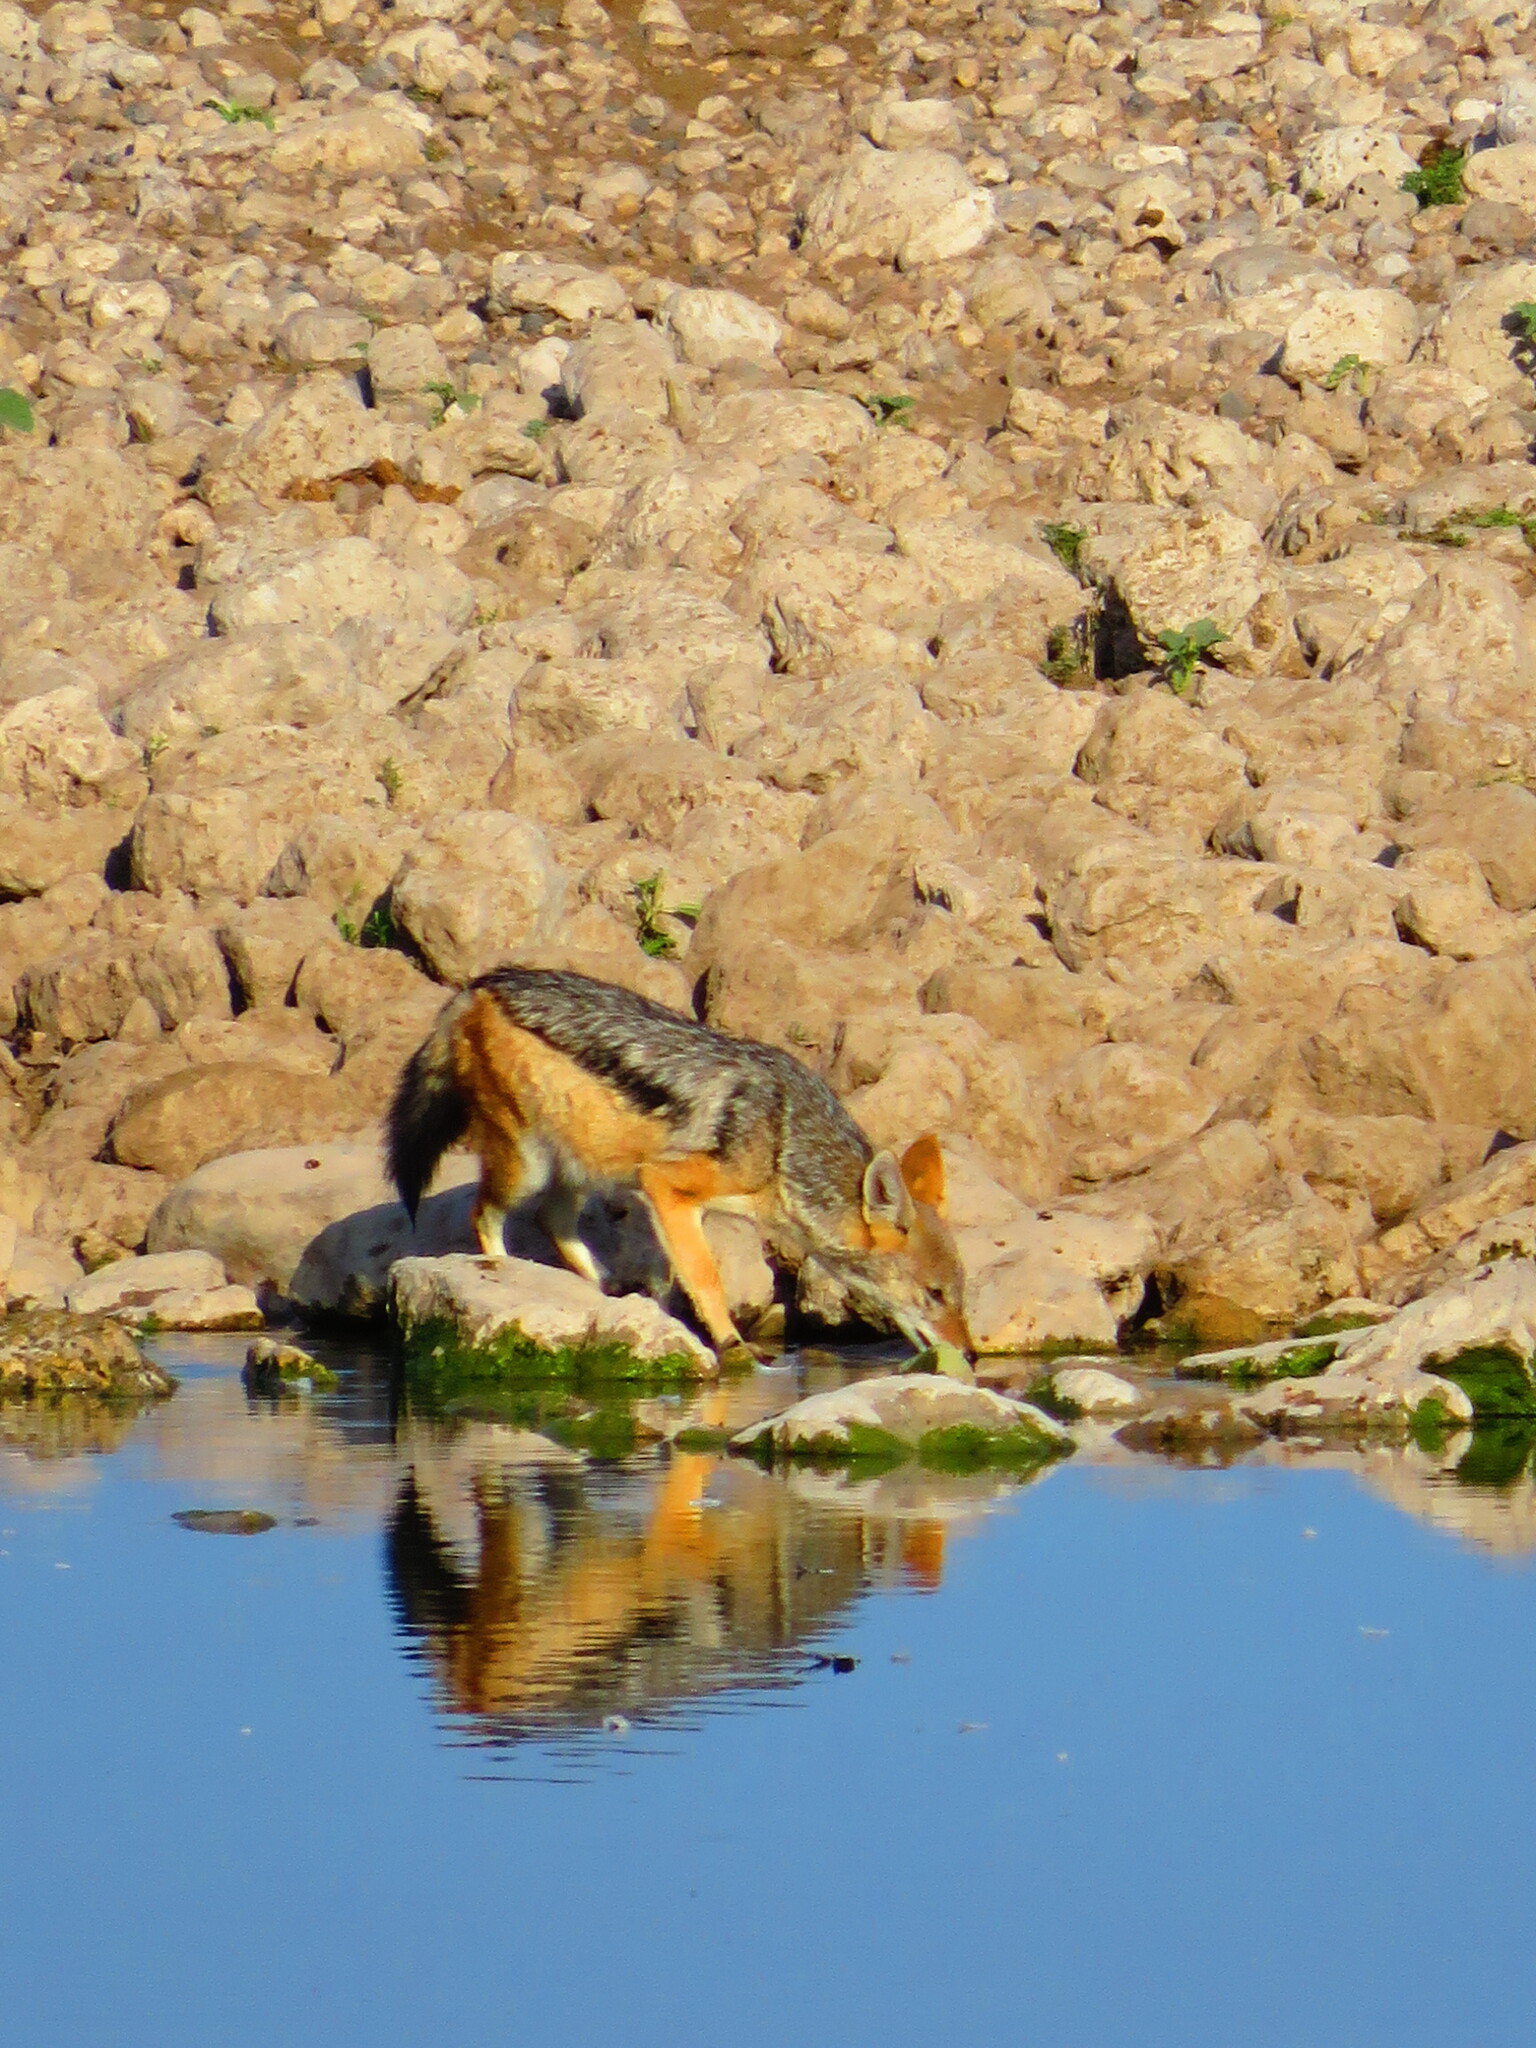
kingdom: Animalia
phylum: Chordata
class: Mammalia
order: Carnivora
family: Canidae
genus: Lupulella
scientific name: Lupulella
